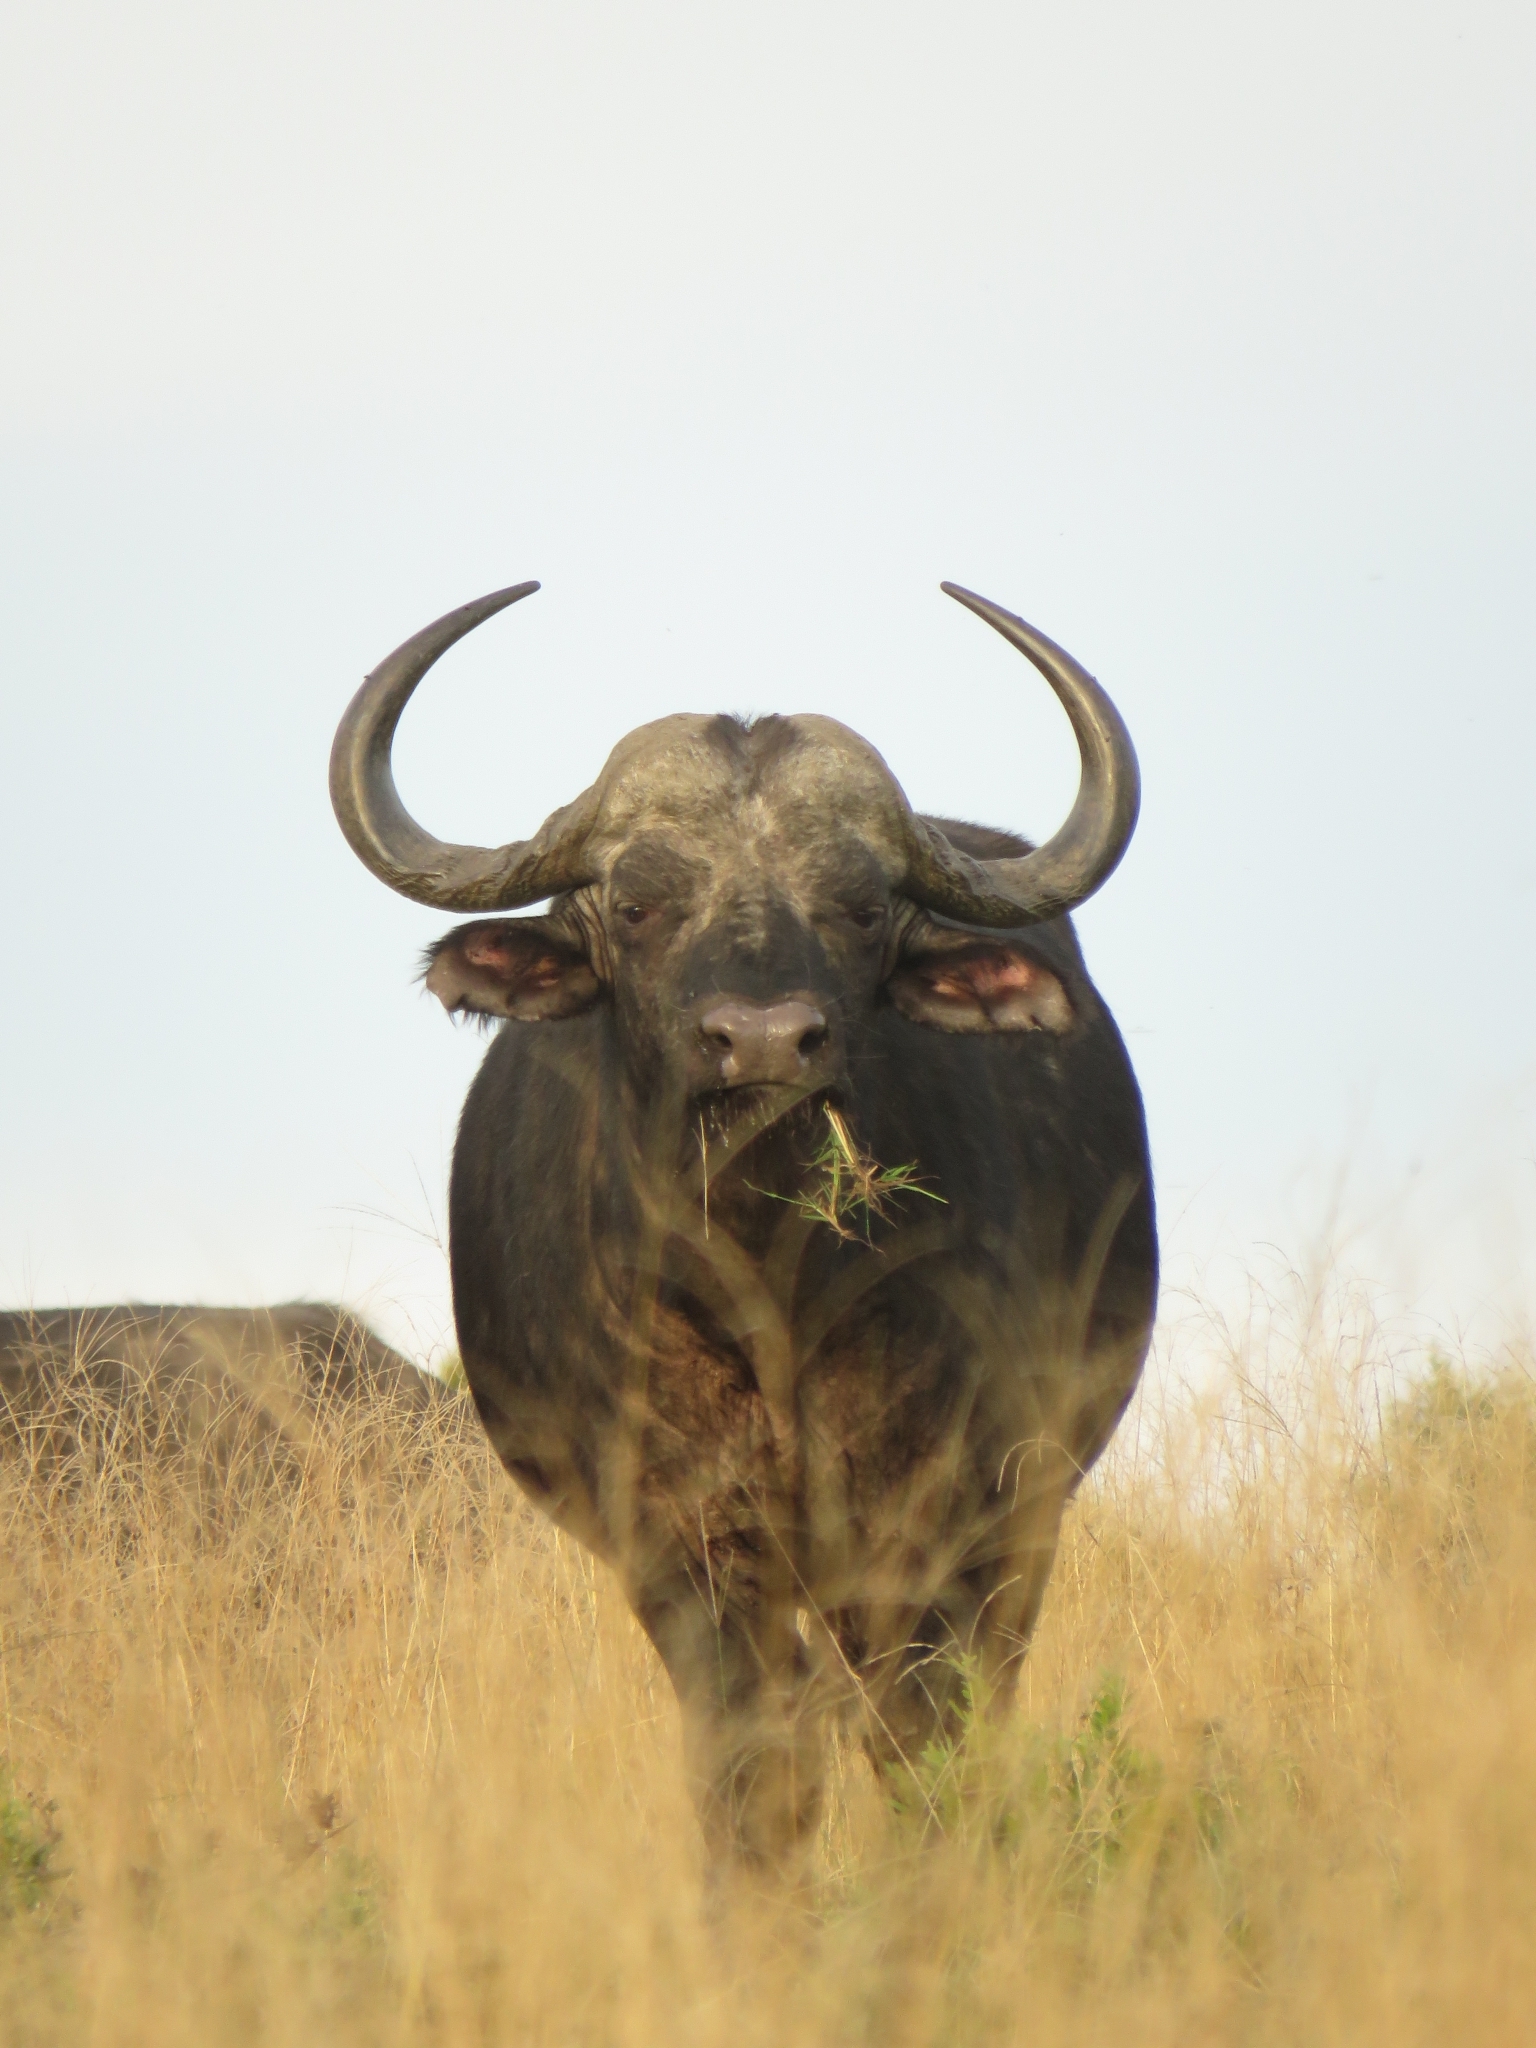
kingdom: Animalia
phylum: Chordata
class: Mammalia
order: Artiodactyla
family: Bovidae
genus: Syncerus
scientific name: Syncerus caffer
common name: African buffalo
